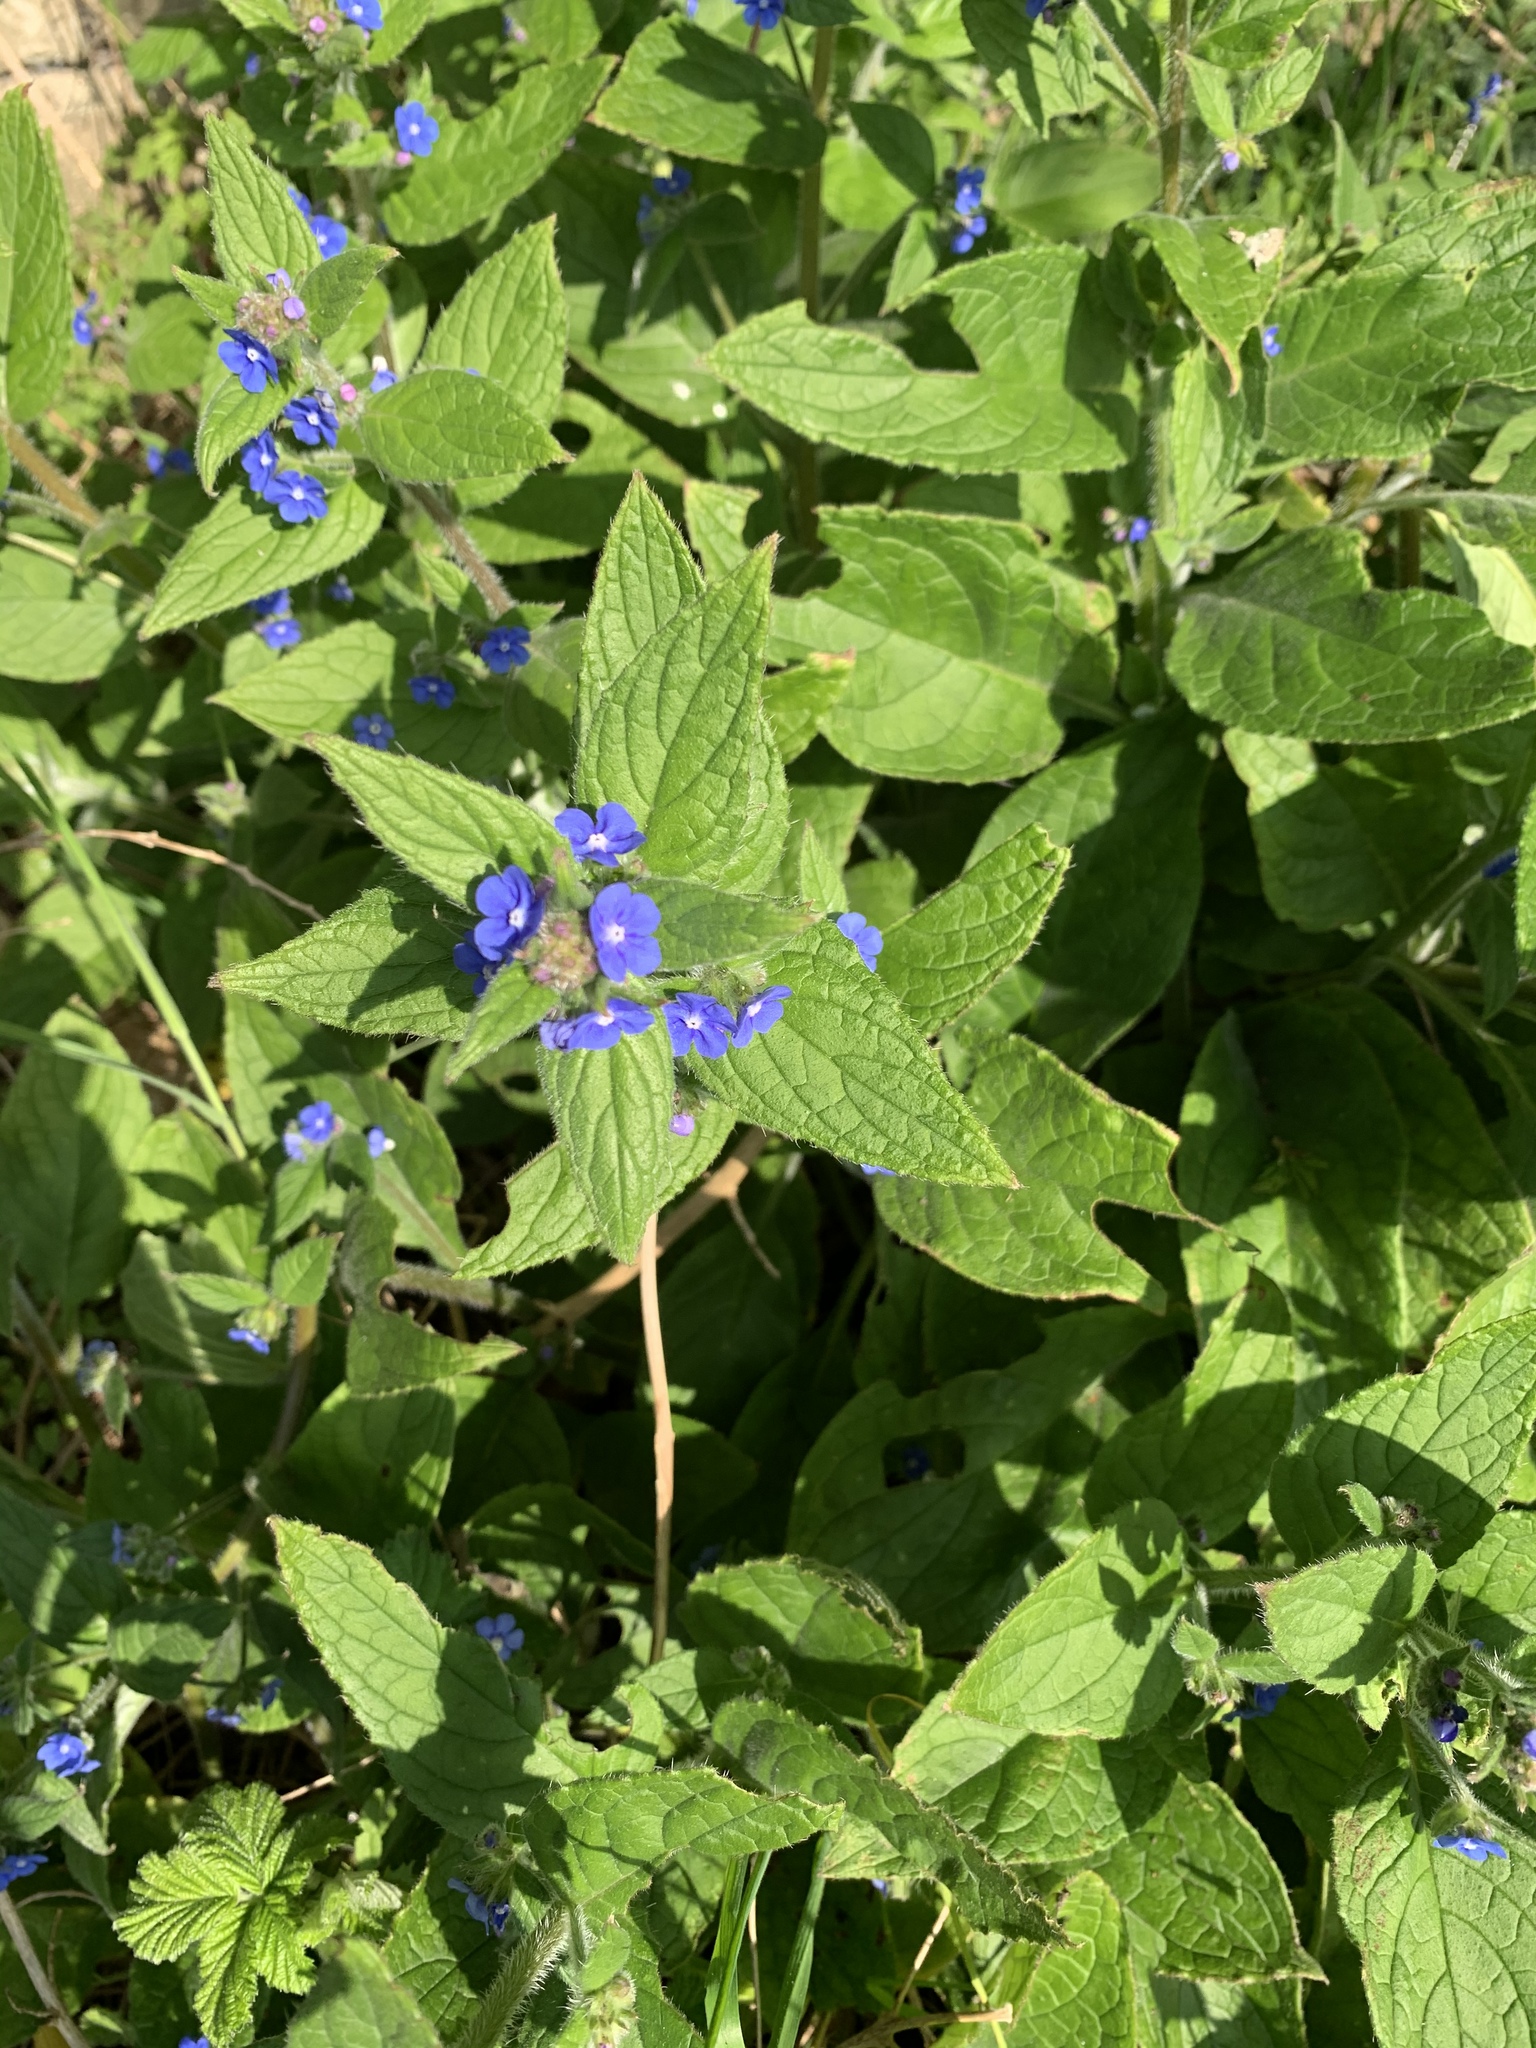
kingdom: Plantae
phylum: Tracheophyta
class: Magnoliopsida
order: Boraginales
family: Boraginaceae
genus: Pentaglottis
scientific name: Pentaglottis sempervirens
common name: Green alkanet
